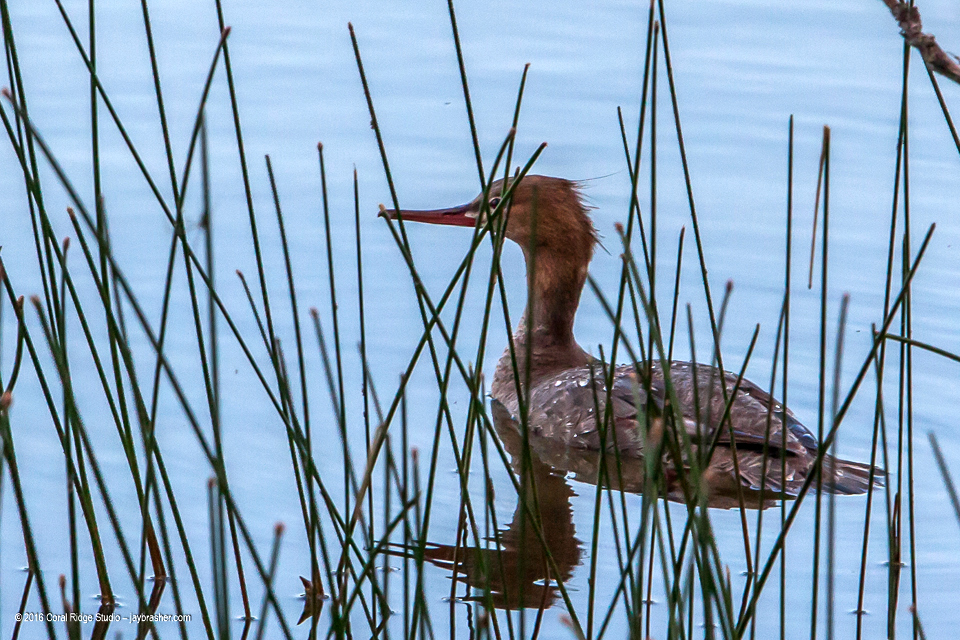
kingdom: Animalia
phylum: Chordata
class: Aves
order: Anseriformes
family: Anatidae
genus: Mergus
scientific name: Mergus serrator
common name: Red-breasted merganser
